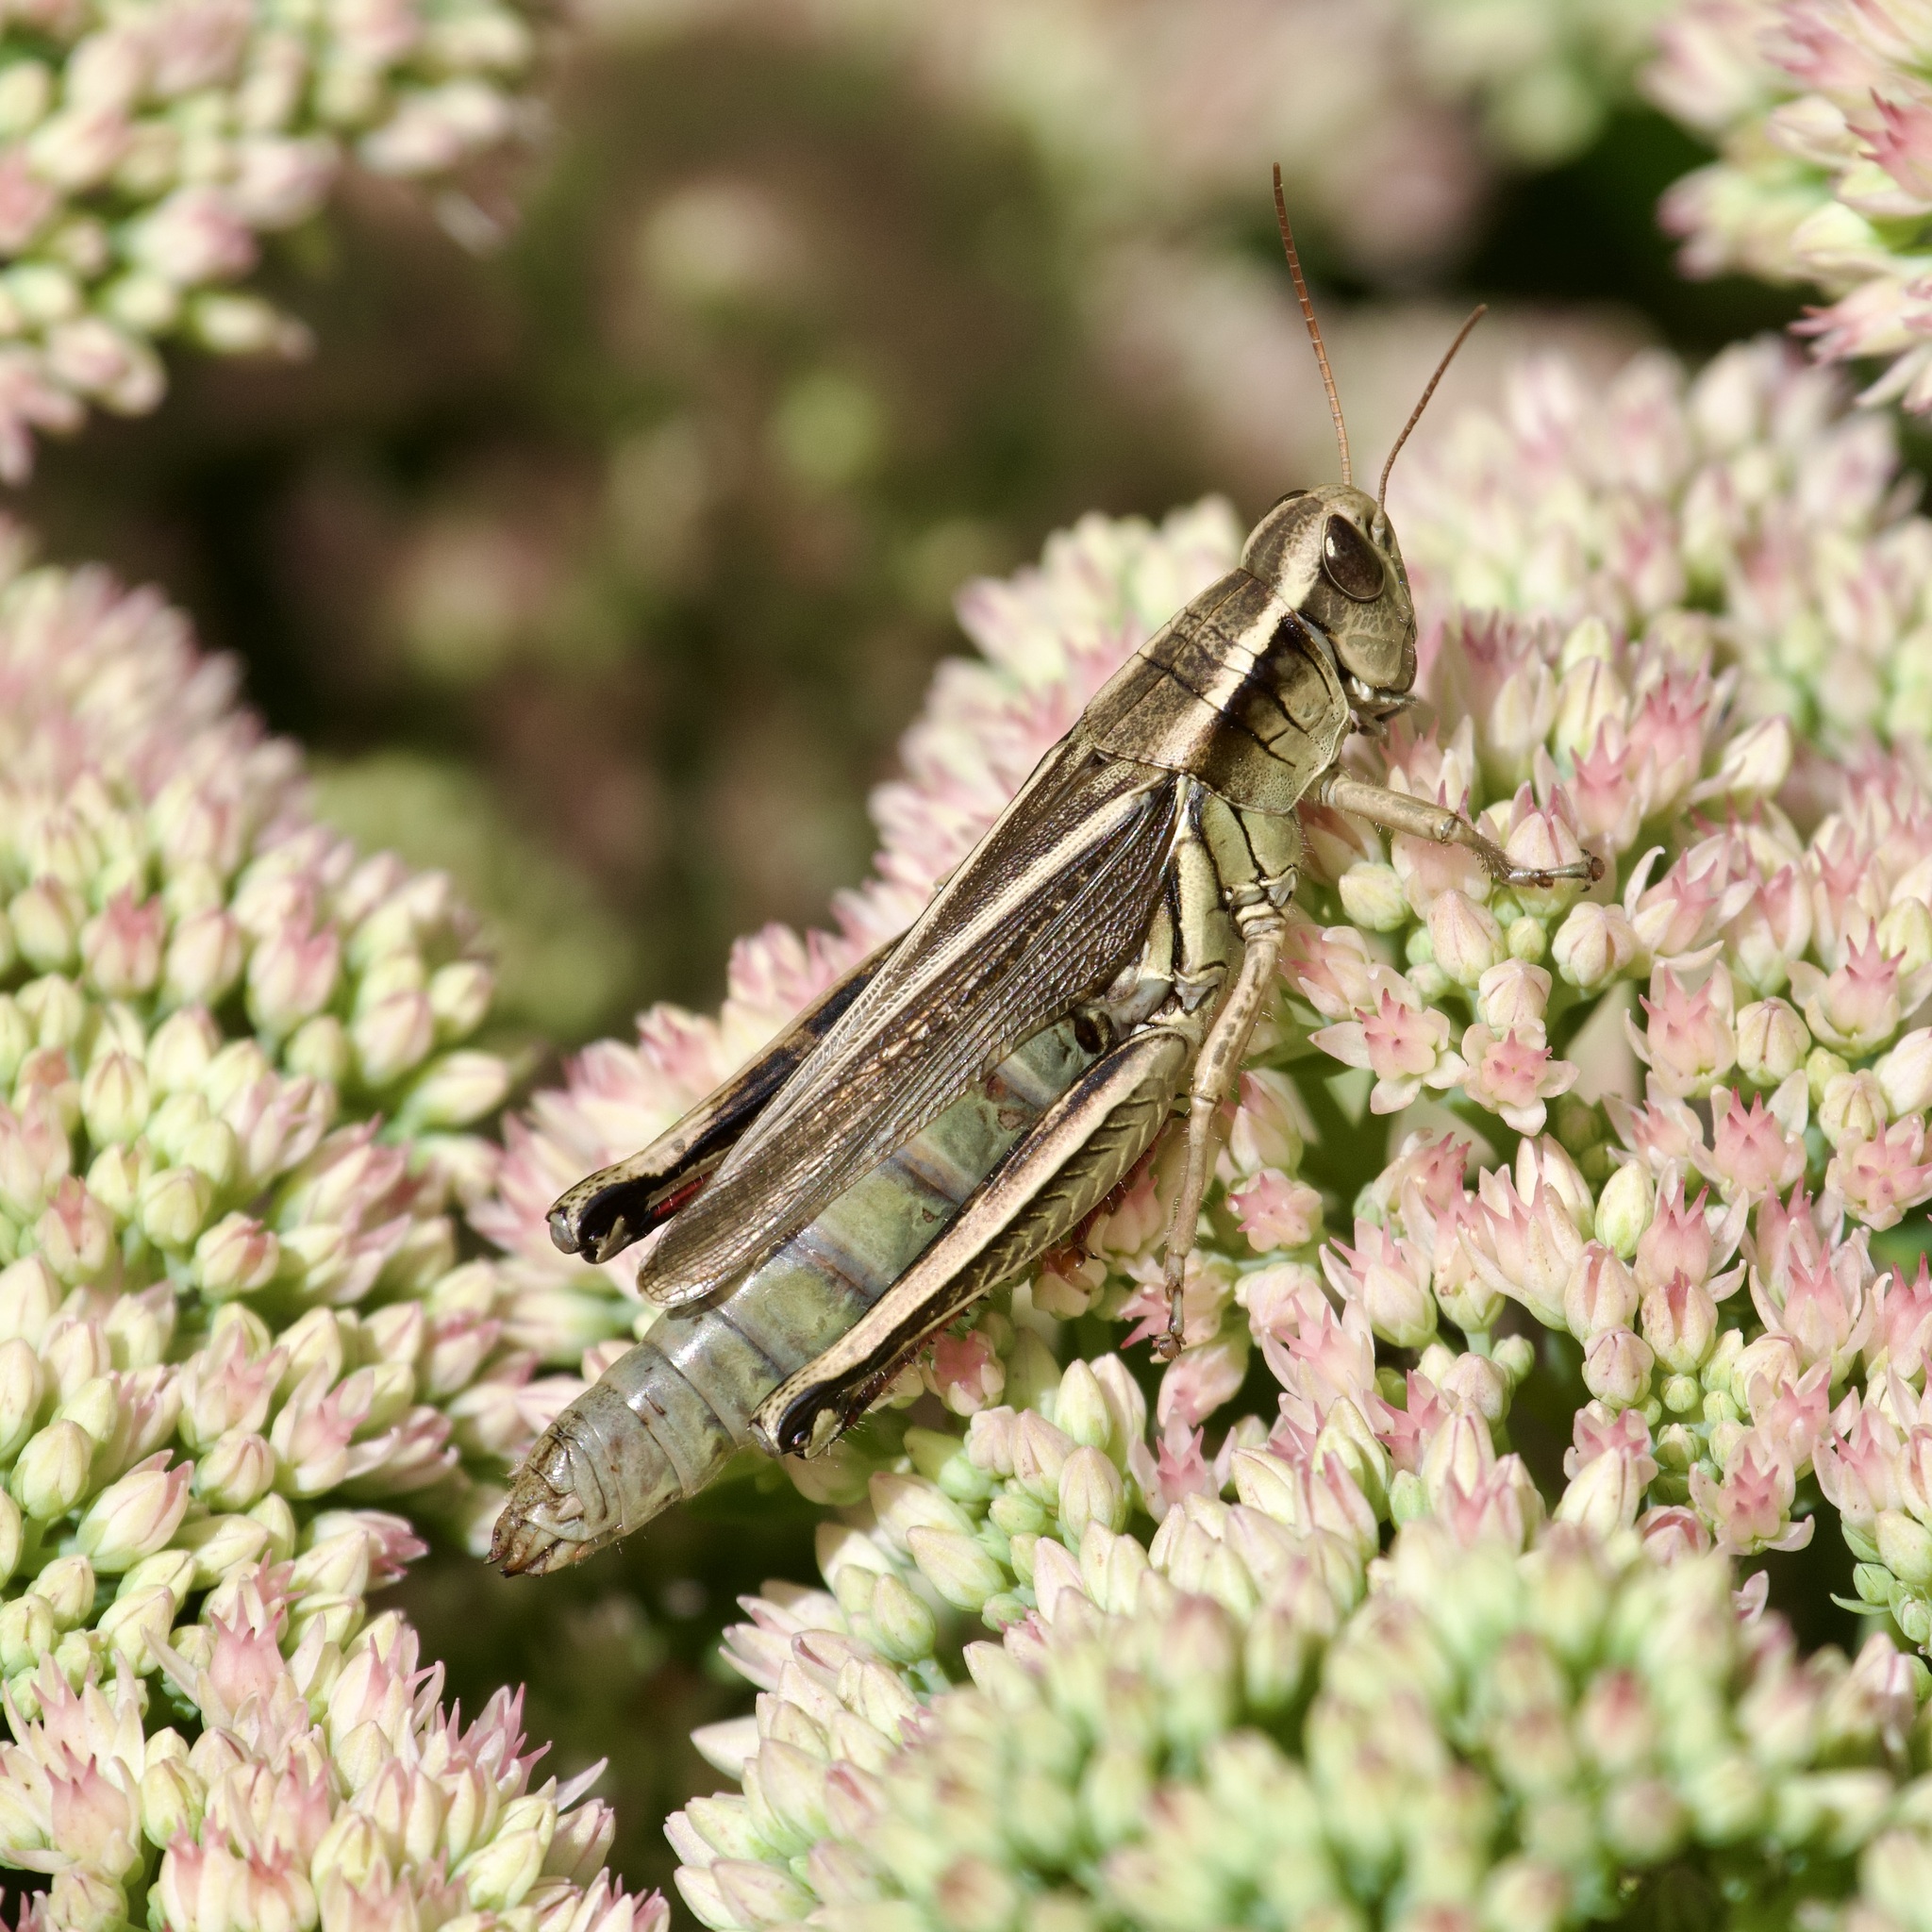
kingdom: Animalia
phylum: Arthropoda
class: Insecta
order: Orthoptera
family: Acrididae
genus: Melanoplus
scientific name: Melanoplus bivittatus
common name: Two-striped grasshopper
